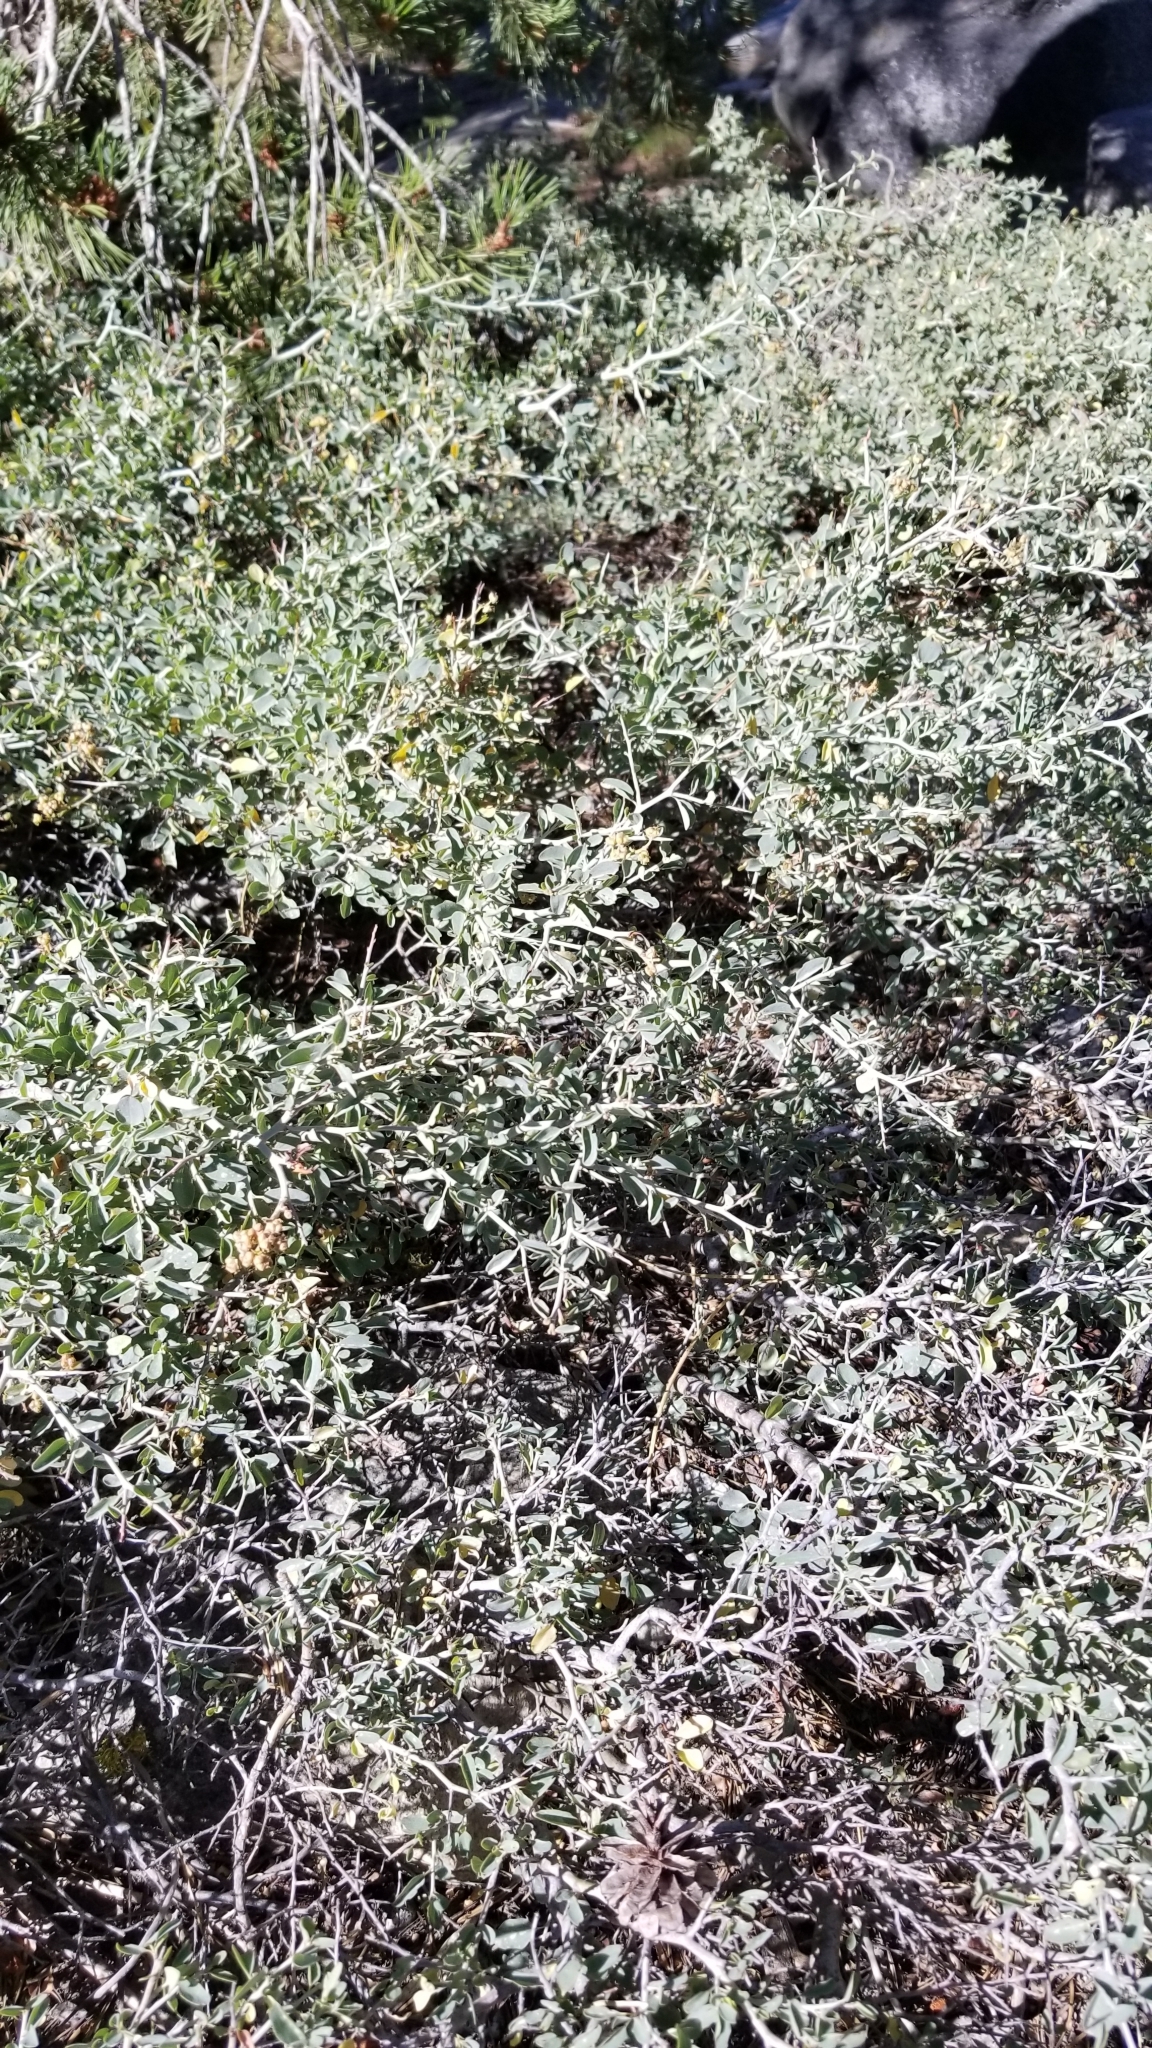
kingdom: Plantae
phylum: Tracheophyta
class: Magnoliopsida
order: Rosales
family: Rhamnaceae
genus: Ceanothus
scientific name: Ceanothus cordulatus
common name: Mountain whitethorn
